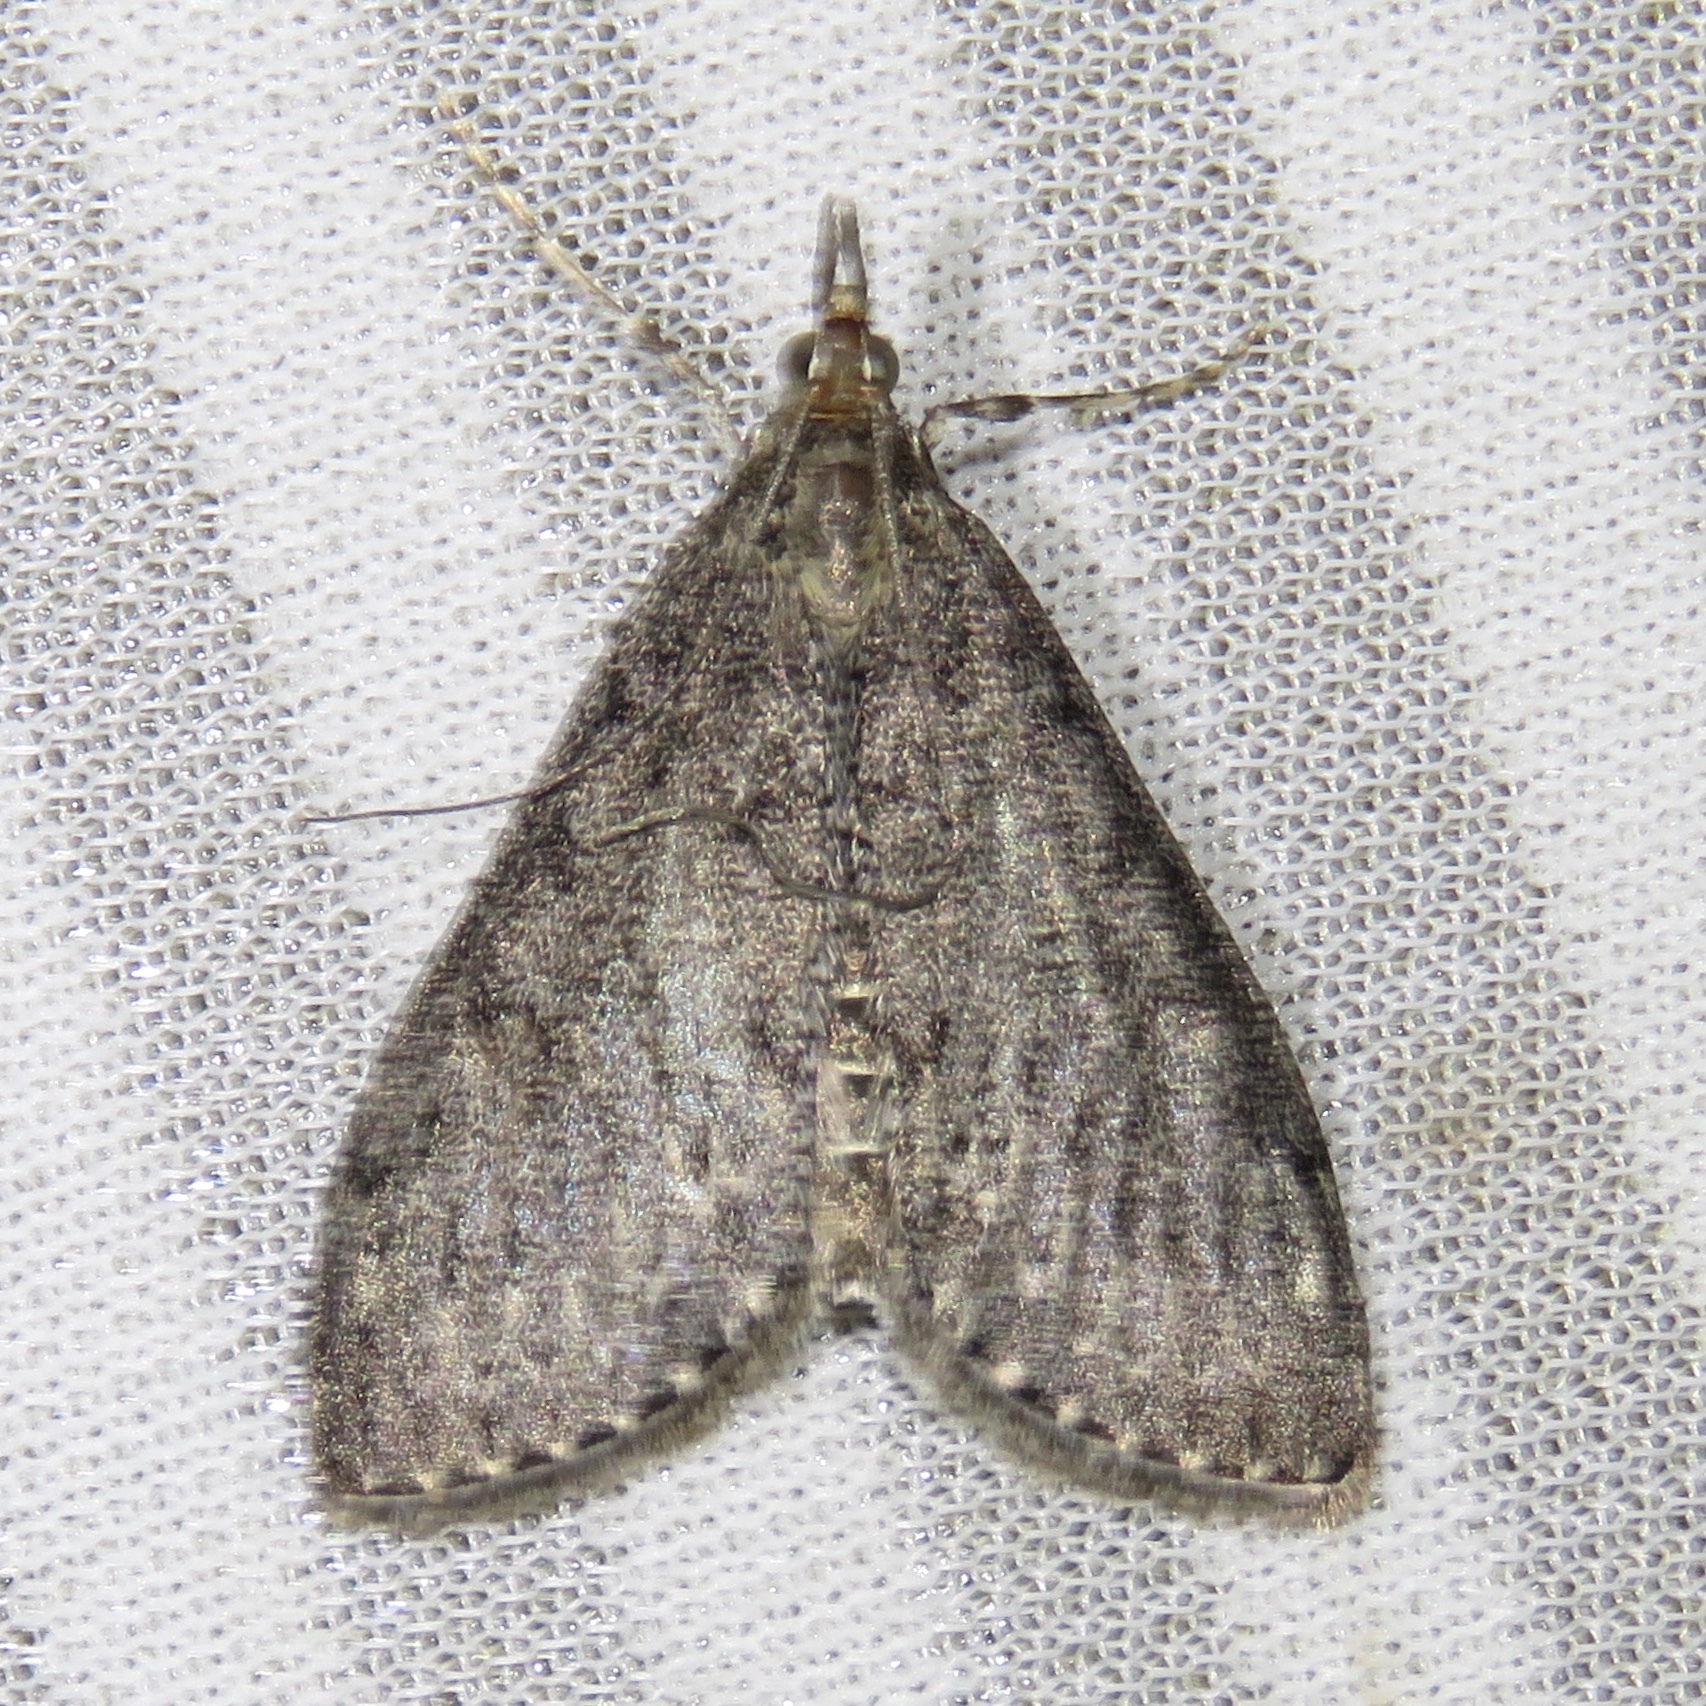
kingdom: Animalia
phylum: Arthropoda
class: Insecta
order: Lepidoptera
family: Crambidae
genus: Saucrobotys
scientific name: Saucrobotys fumoferalis
